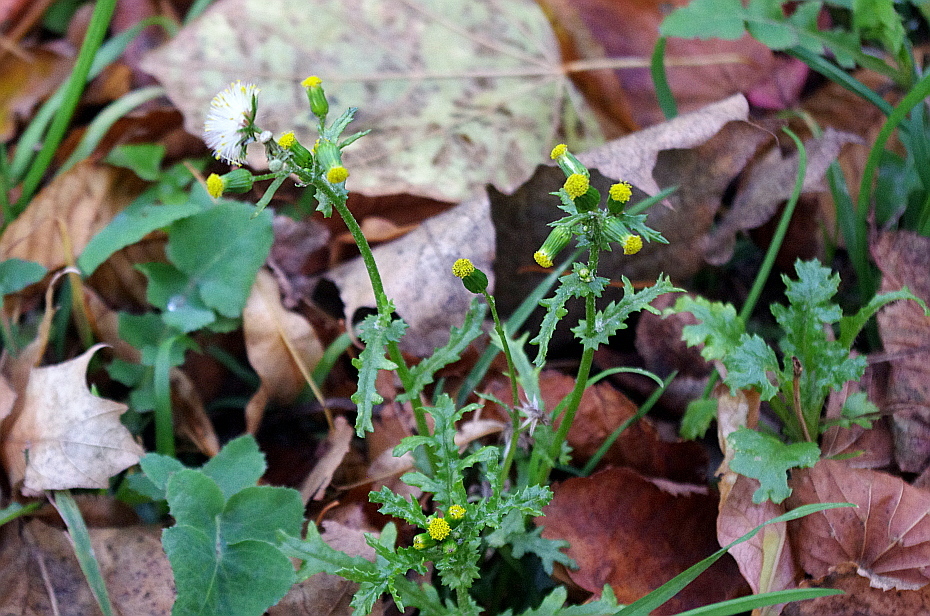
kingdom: Plantae
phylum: Tracheophyta
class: Magnoliopsida
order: Asterales
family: Asteraceae
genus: Senecio
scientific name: Senecio vulgaris
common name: Old-man-in-the-spring
